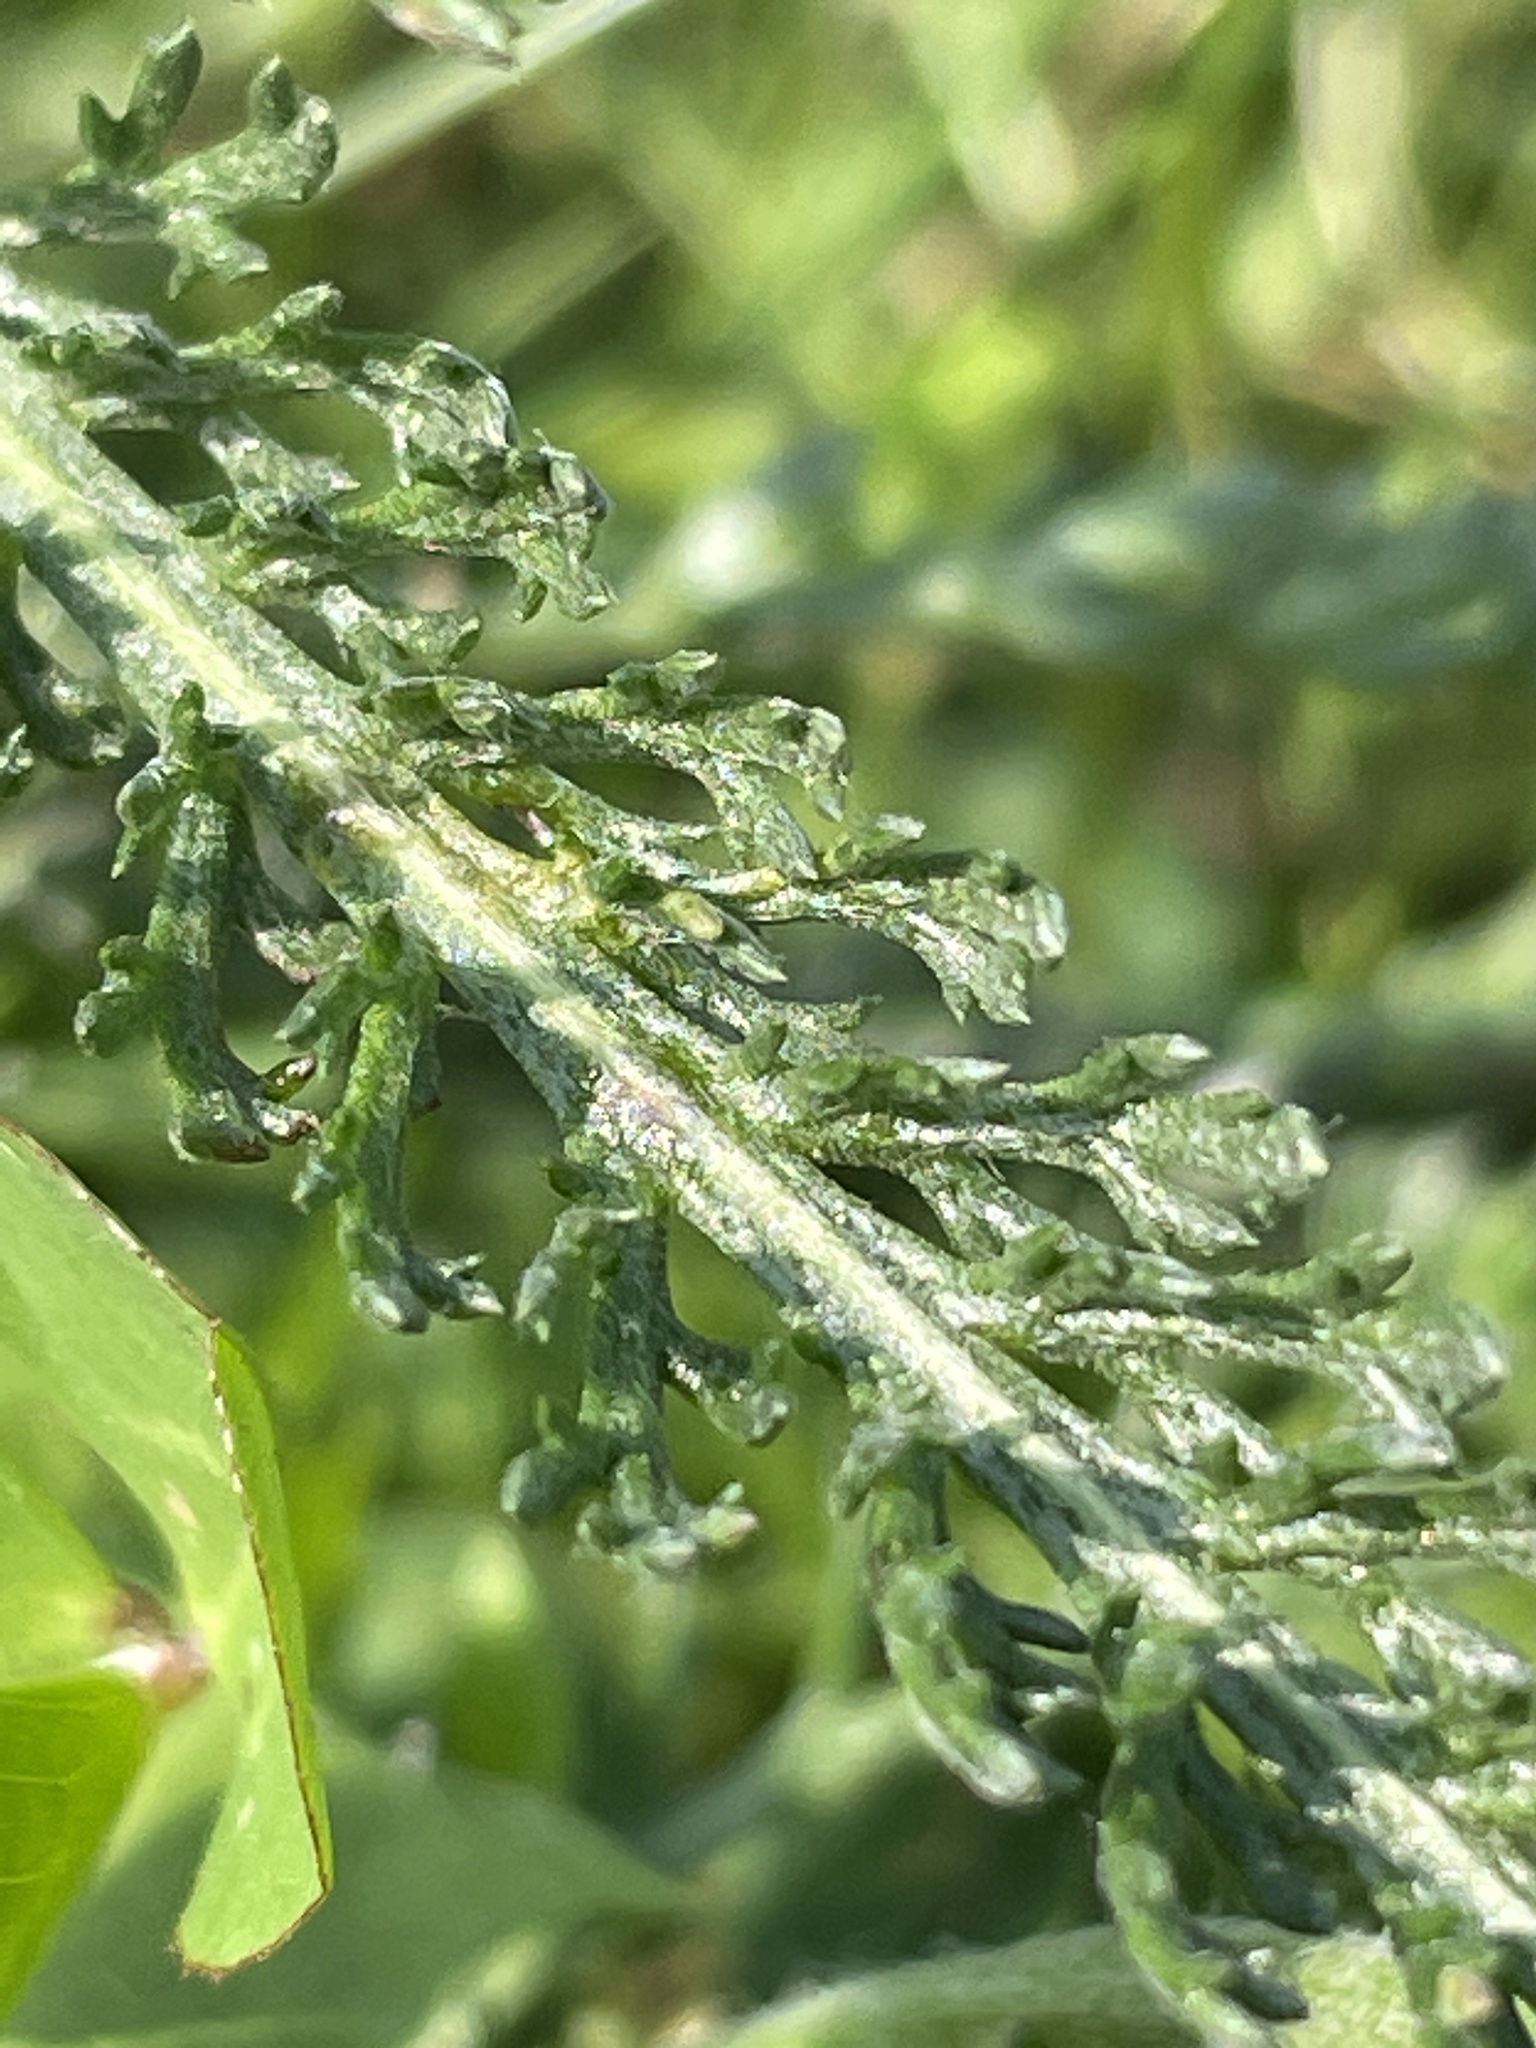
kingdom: Plantae
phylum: Tracheophyta
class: Magnoliopsida
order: Asterales
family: Asteraceae
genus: Achillea
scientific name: Achillea millefolium
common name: Yarrow
